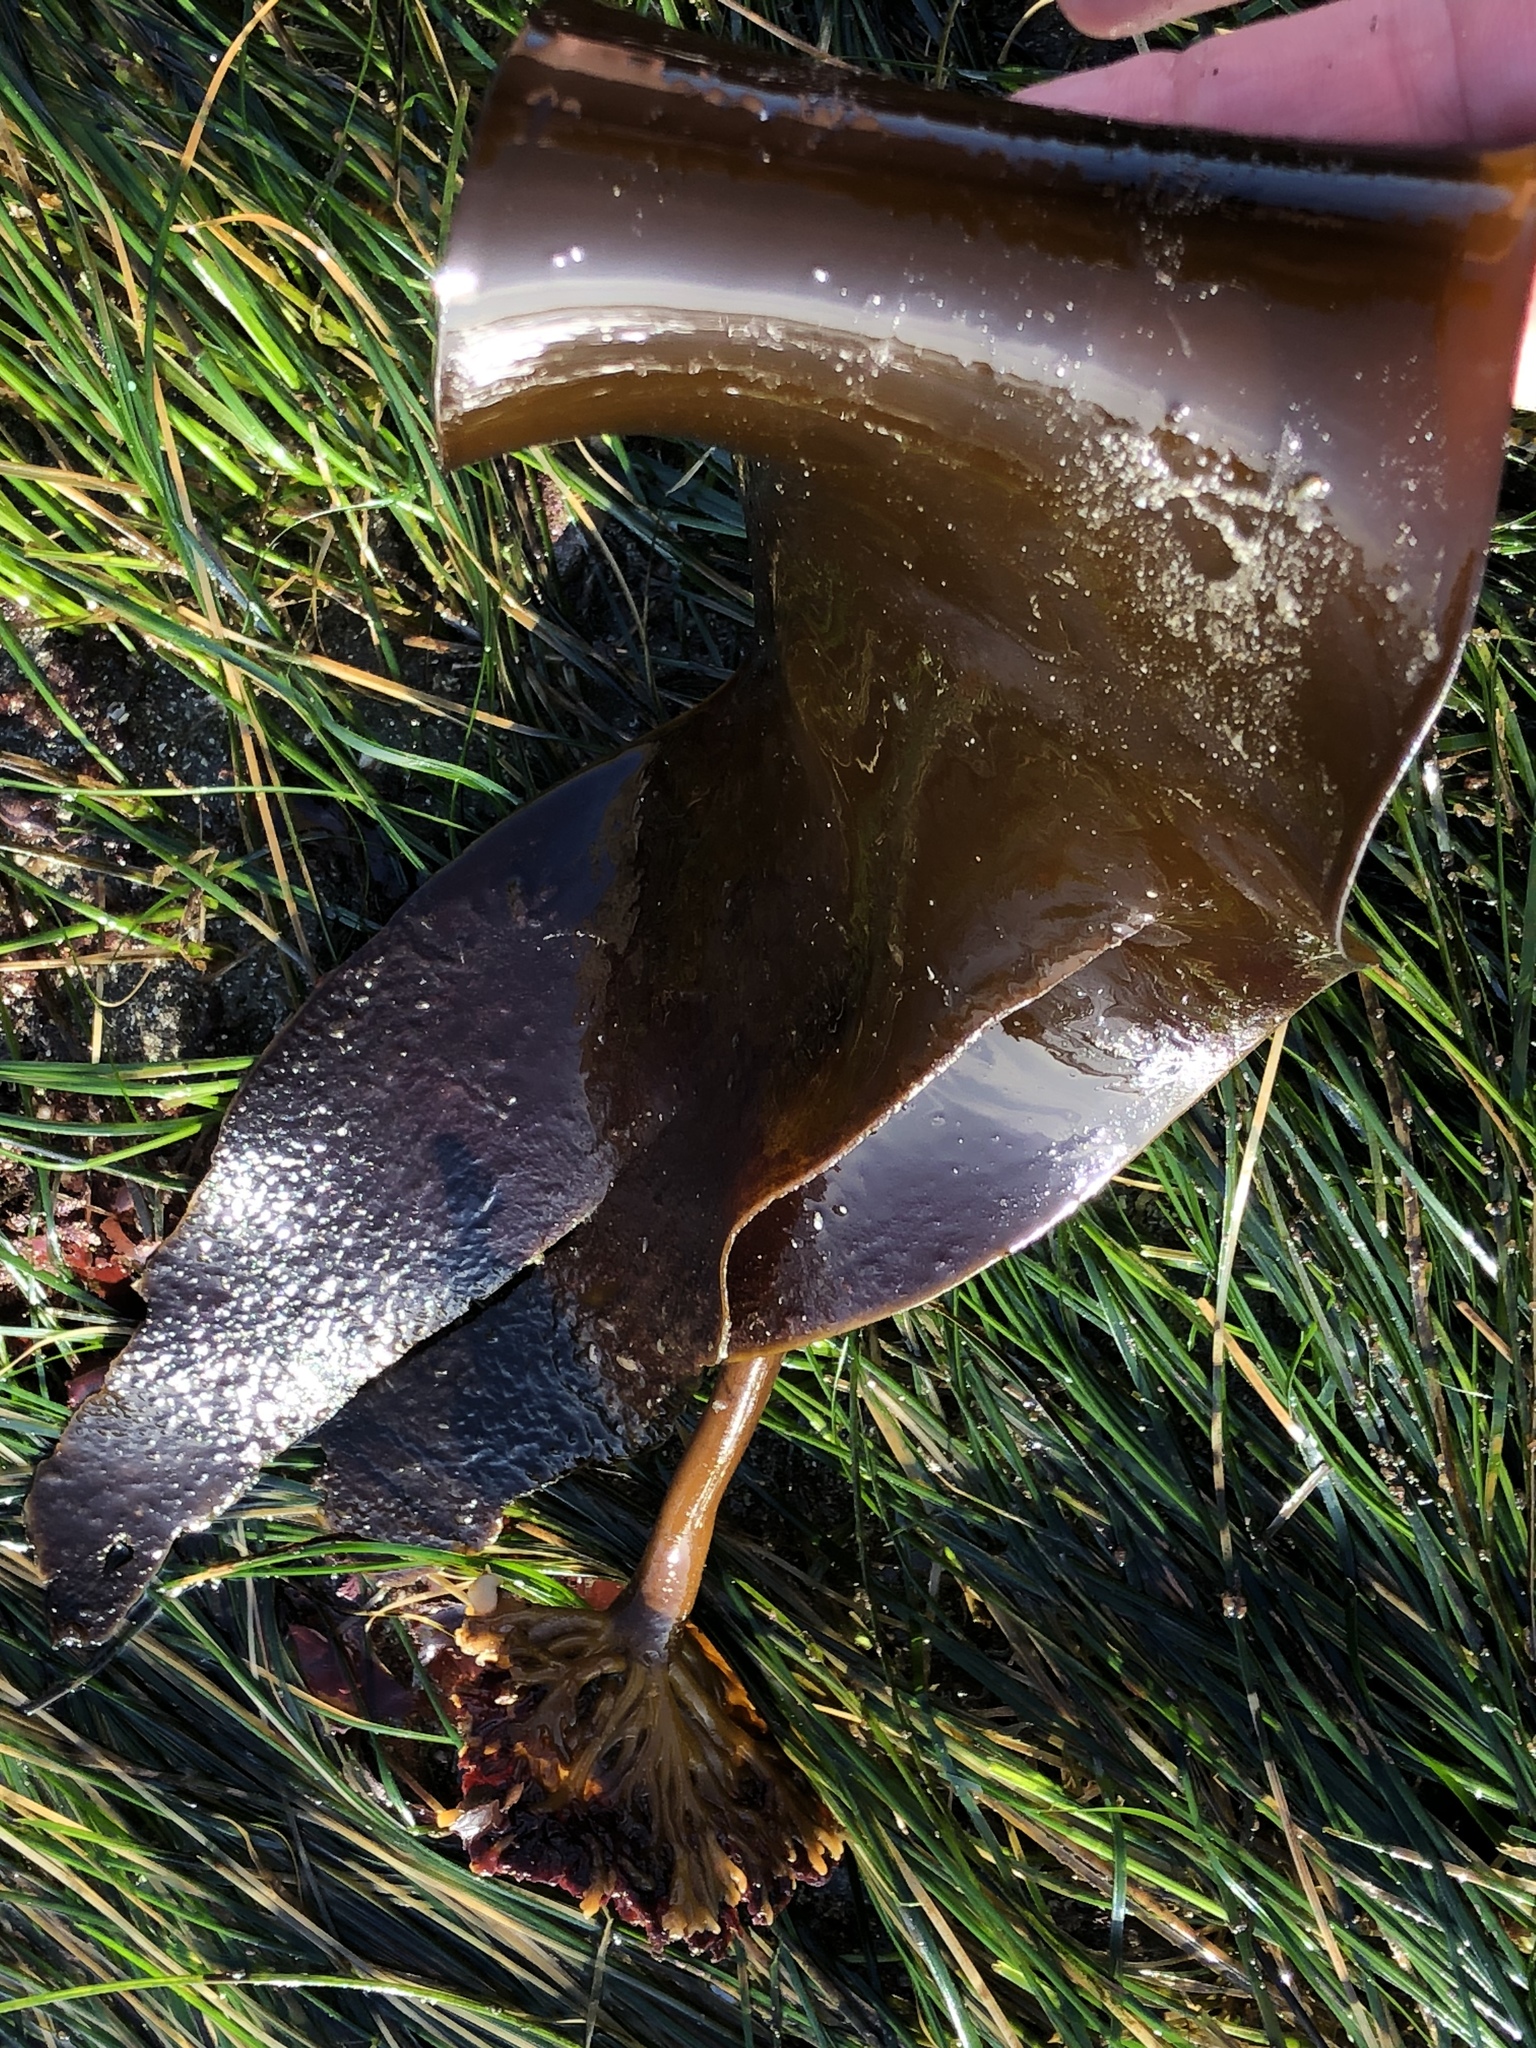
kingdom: Chromista
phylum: Ochrophyta
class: Phaeophyceae
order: Laminariales
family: Laminariaceae
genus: Laminaria
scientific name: Laminaria setchellii
